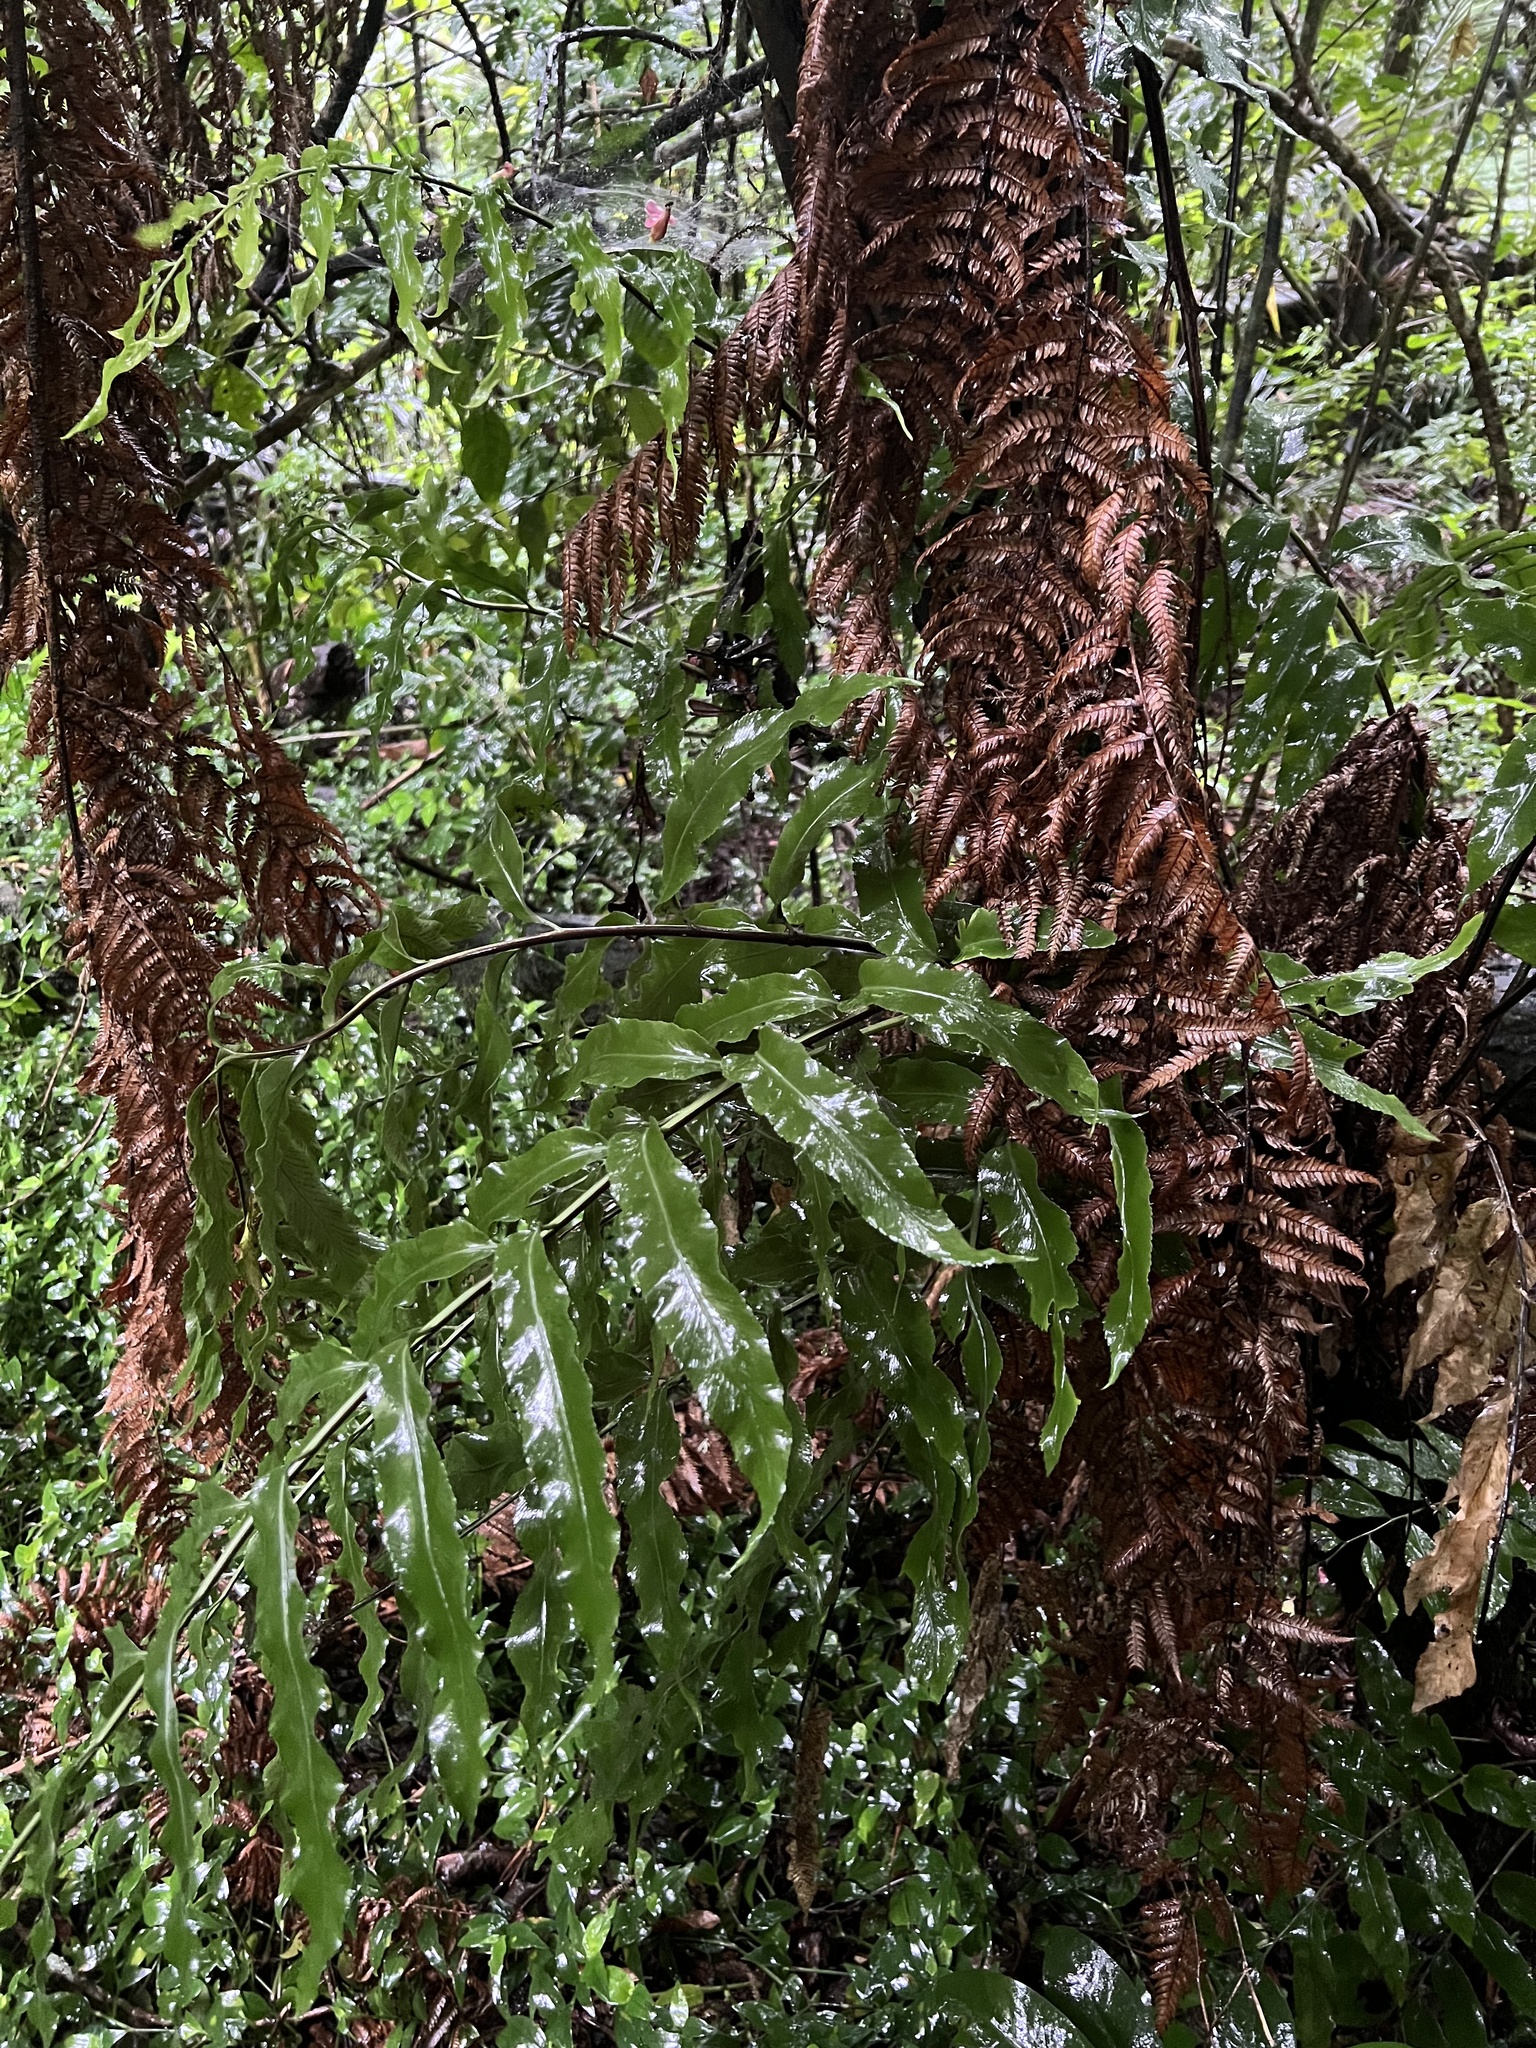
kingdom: Plantae
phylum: Tracheophyta
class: Polypodiopsida
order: Polypodiales
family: Aspleniaceae
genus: Asplenium
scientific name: Asplenium oblongifolium
